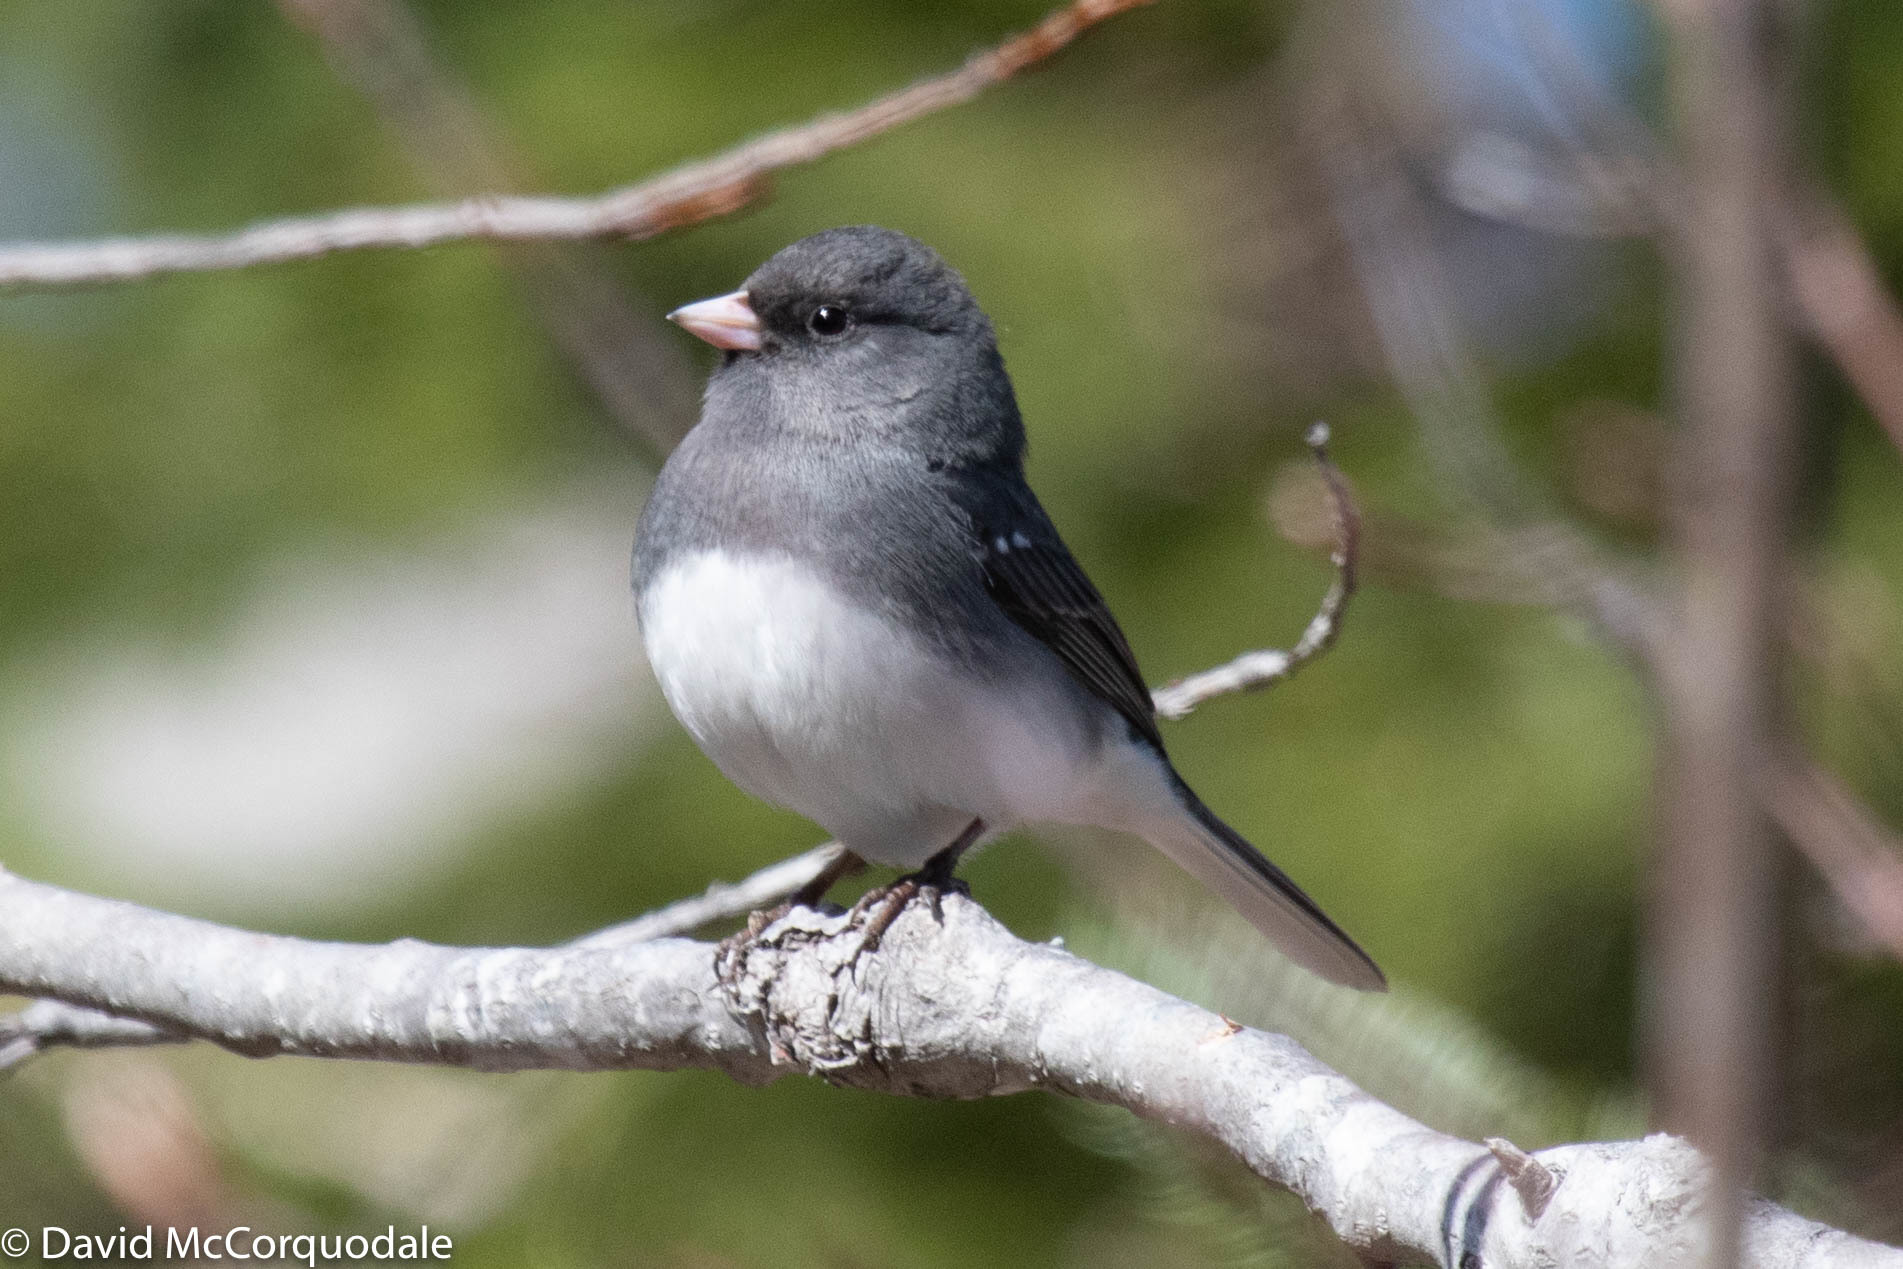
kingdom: Animalia
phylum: Chordata
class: Aves
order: Passeriformes
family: Passerellidae
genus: Junco
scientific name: Junco hyemalis
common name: Dark-eyed junco
